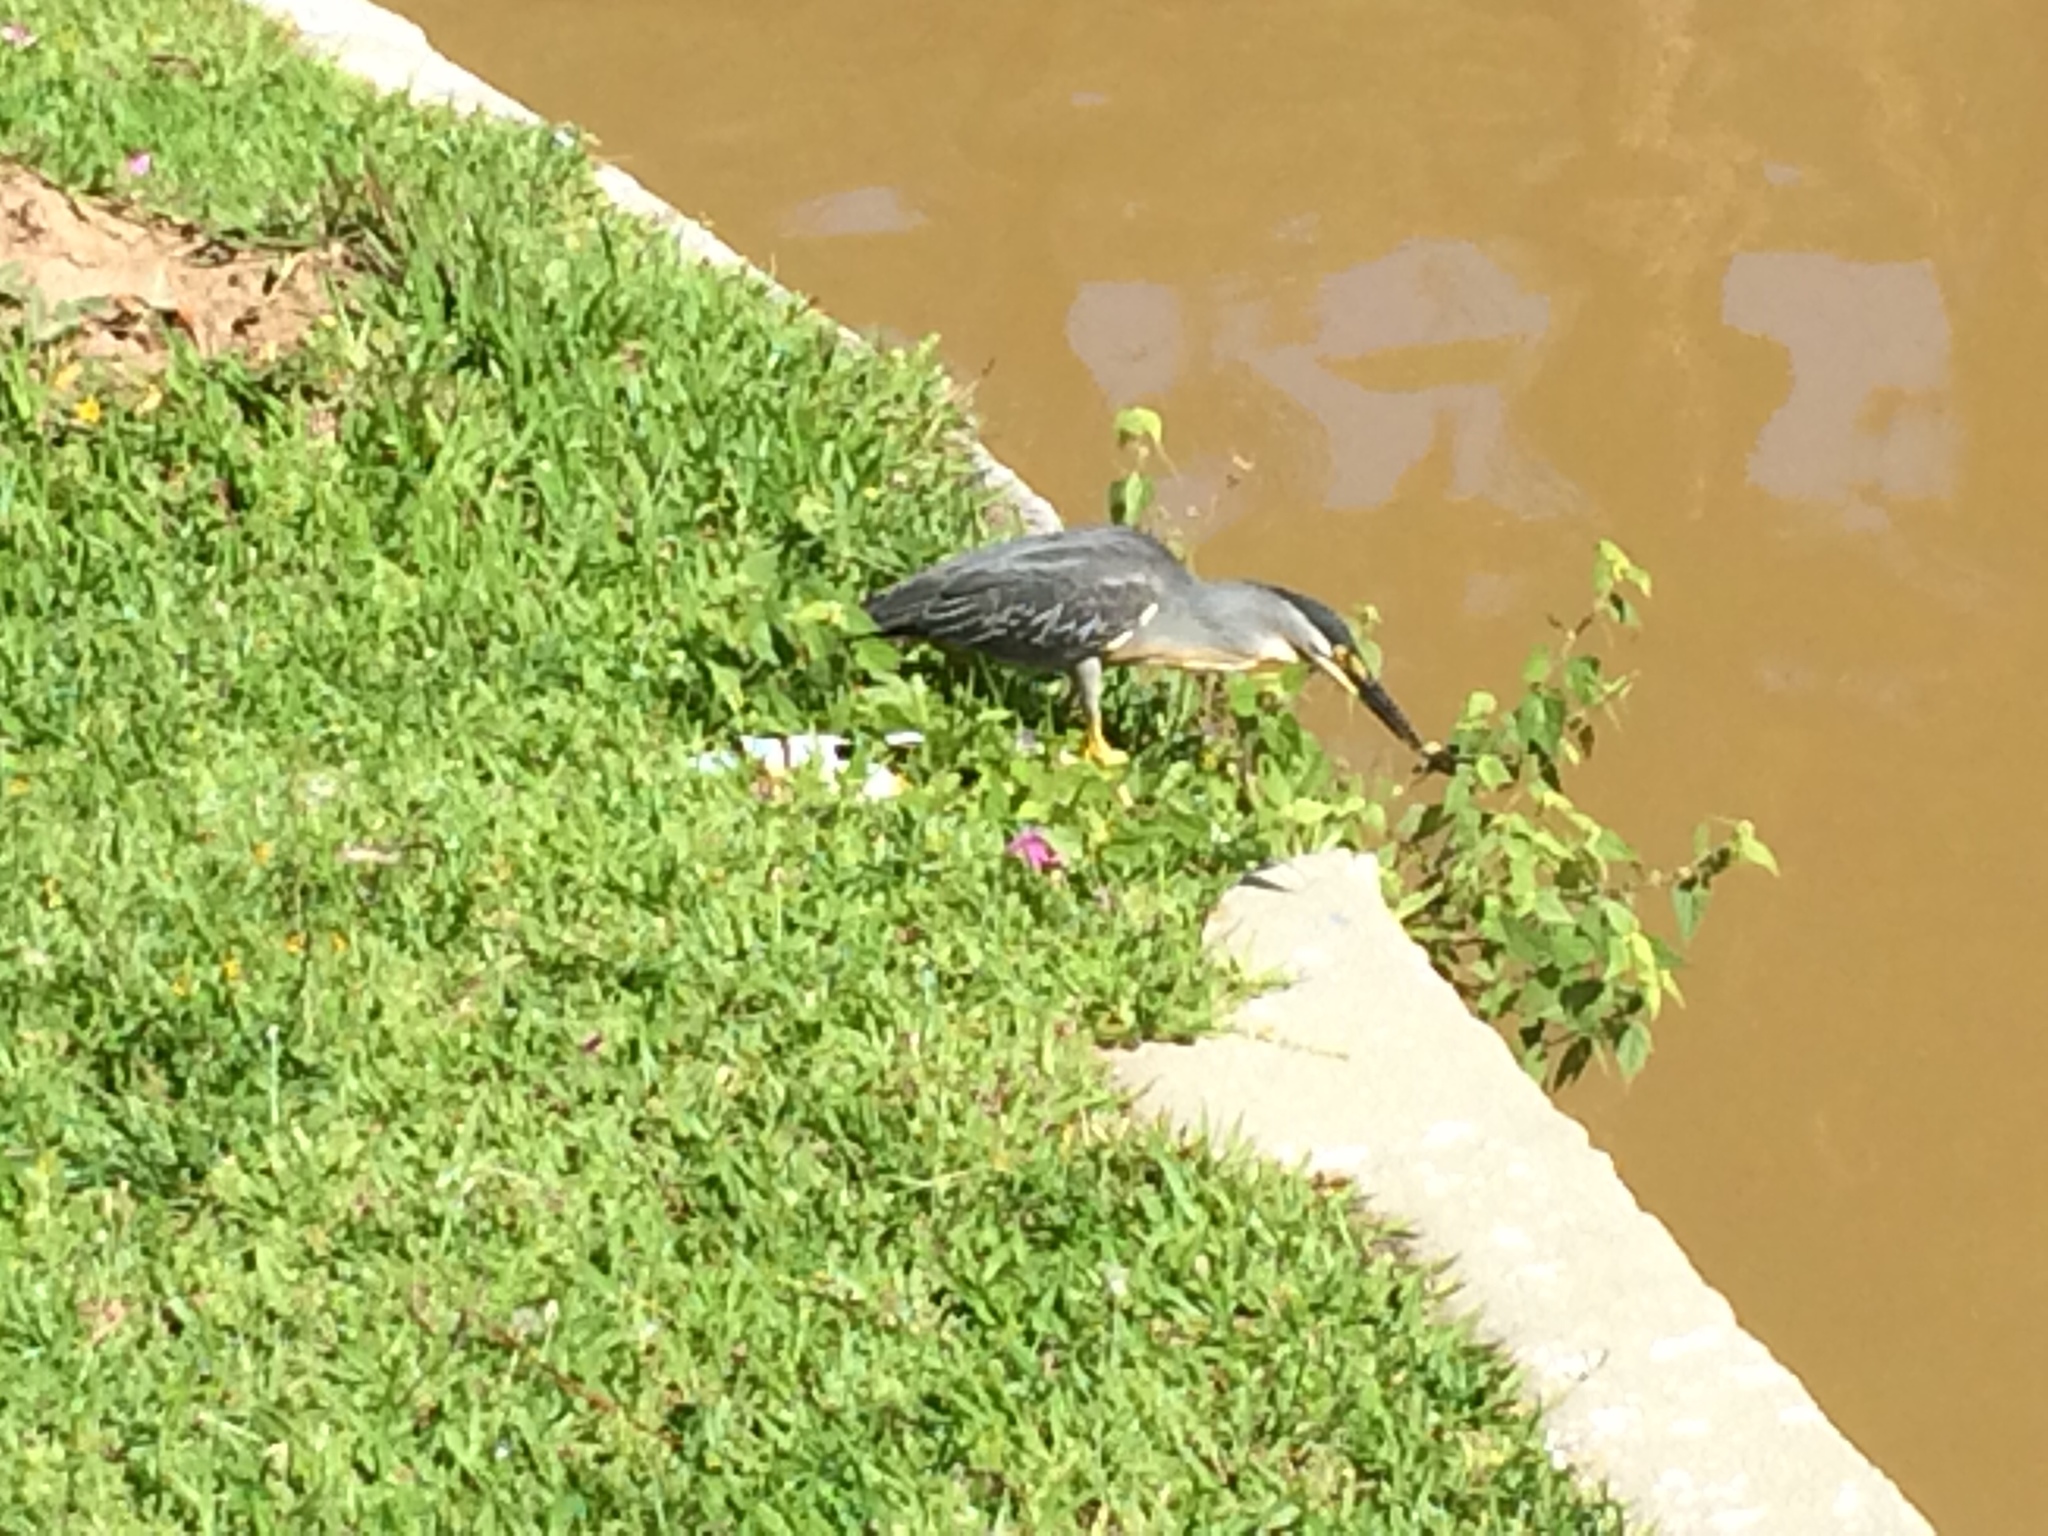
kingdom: Animalia
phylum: Chordata
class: Aves
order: Pelecaniformes
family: Ardeidae
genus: Butorides
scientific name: Butorides striata
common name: Striated heron
